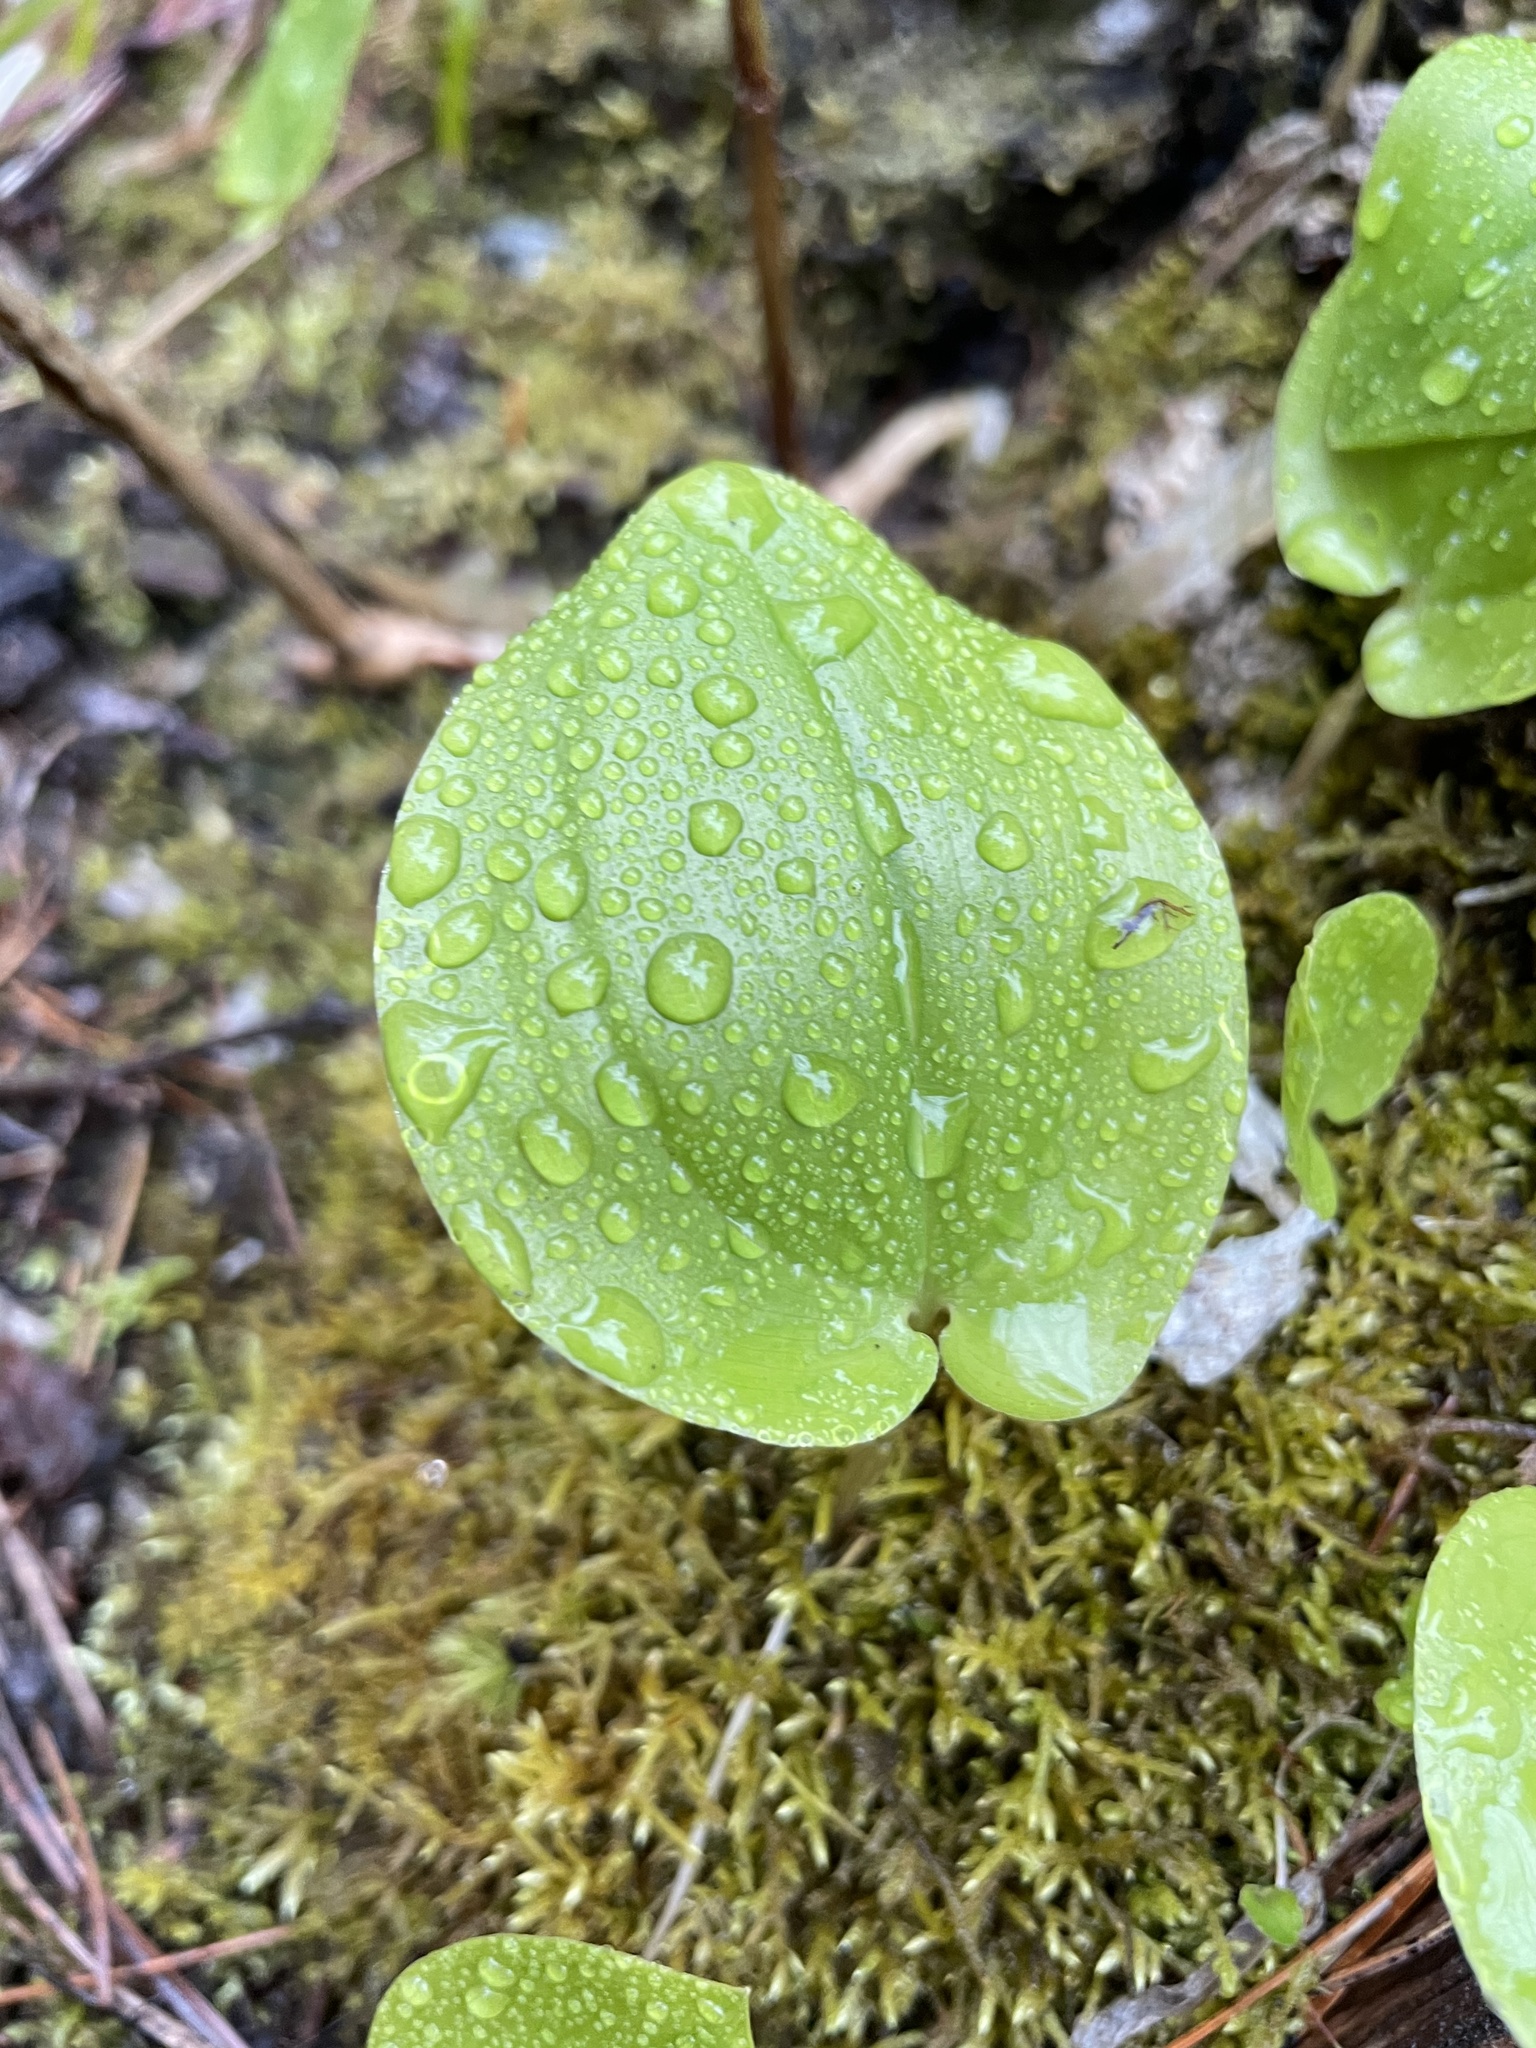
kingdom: Plantae
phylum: Tracheophyta
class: Liliopsida
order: Asparagales
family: Asparagaceae
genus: Maianthemum
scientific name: Maianthemum canadense
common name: False lily-of-the-valley
